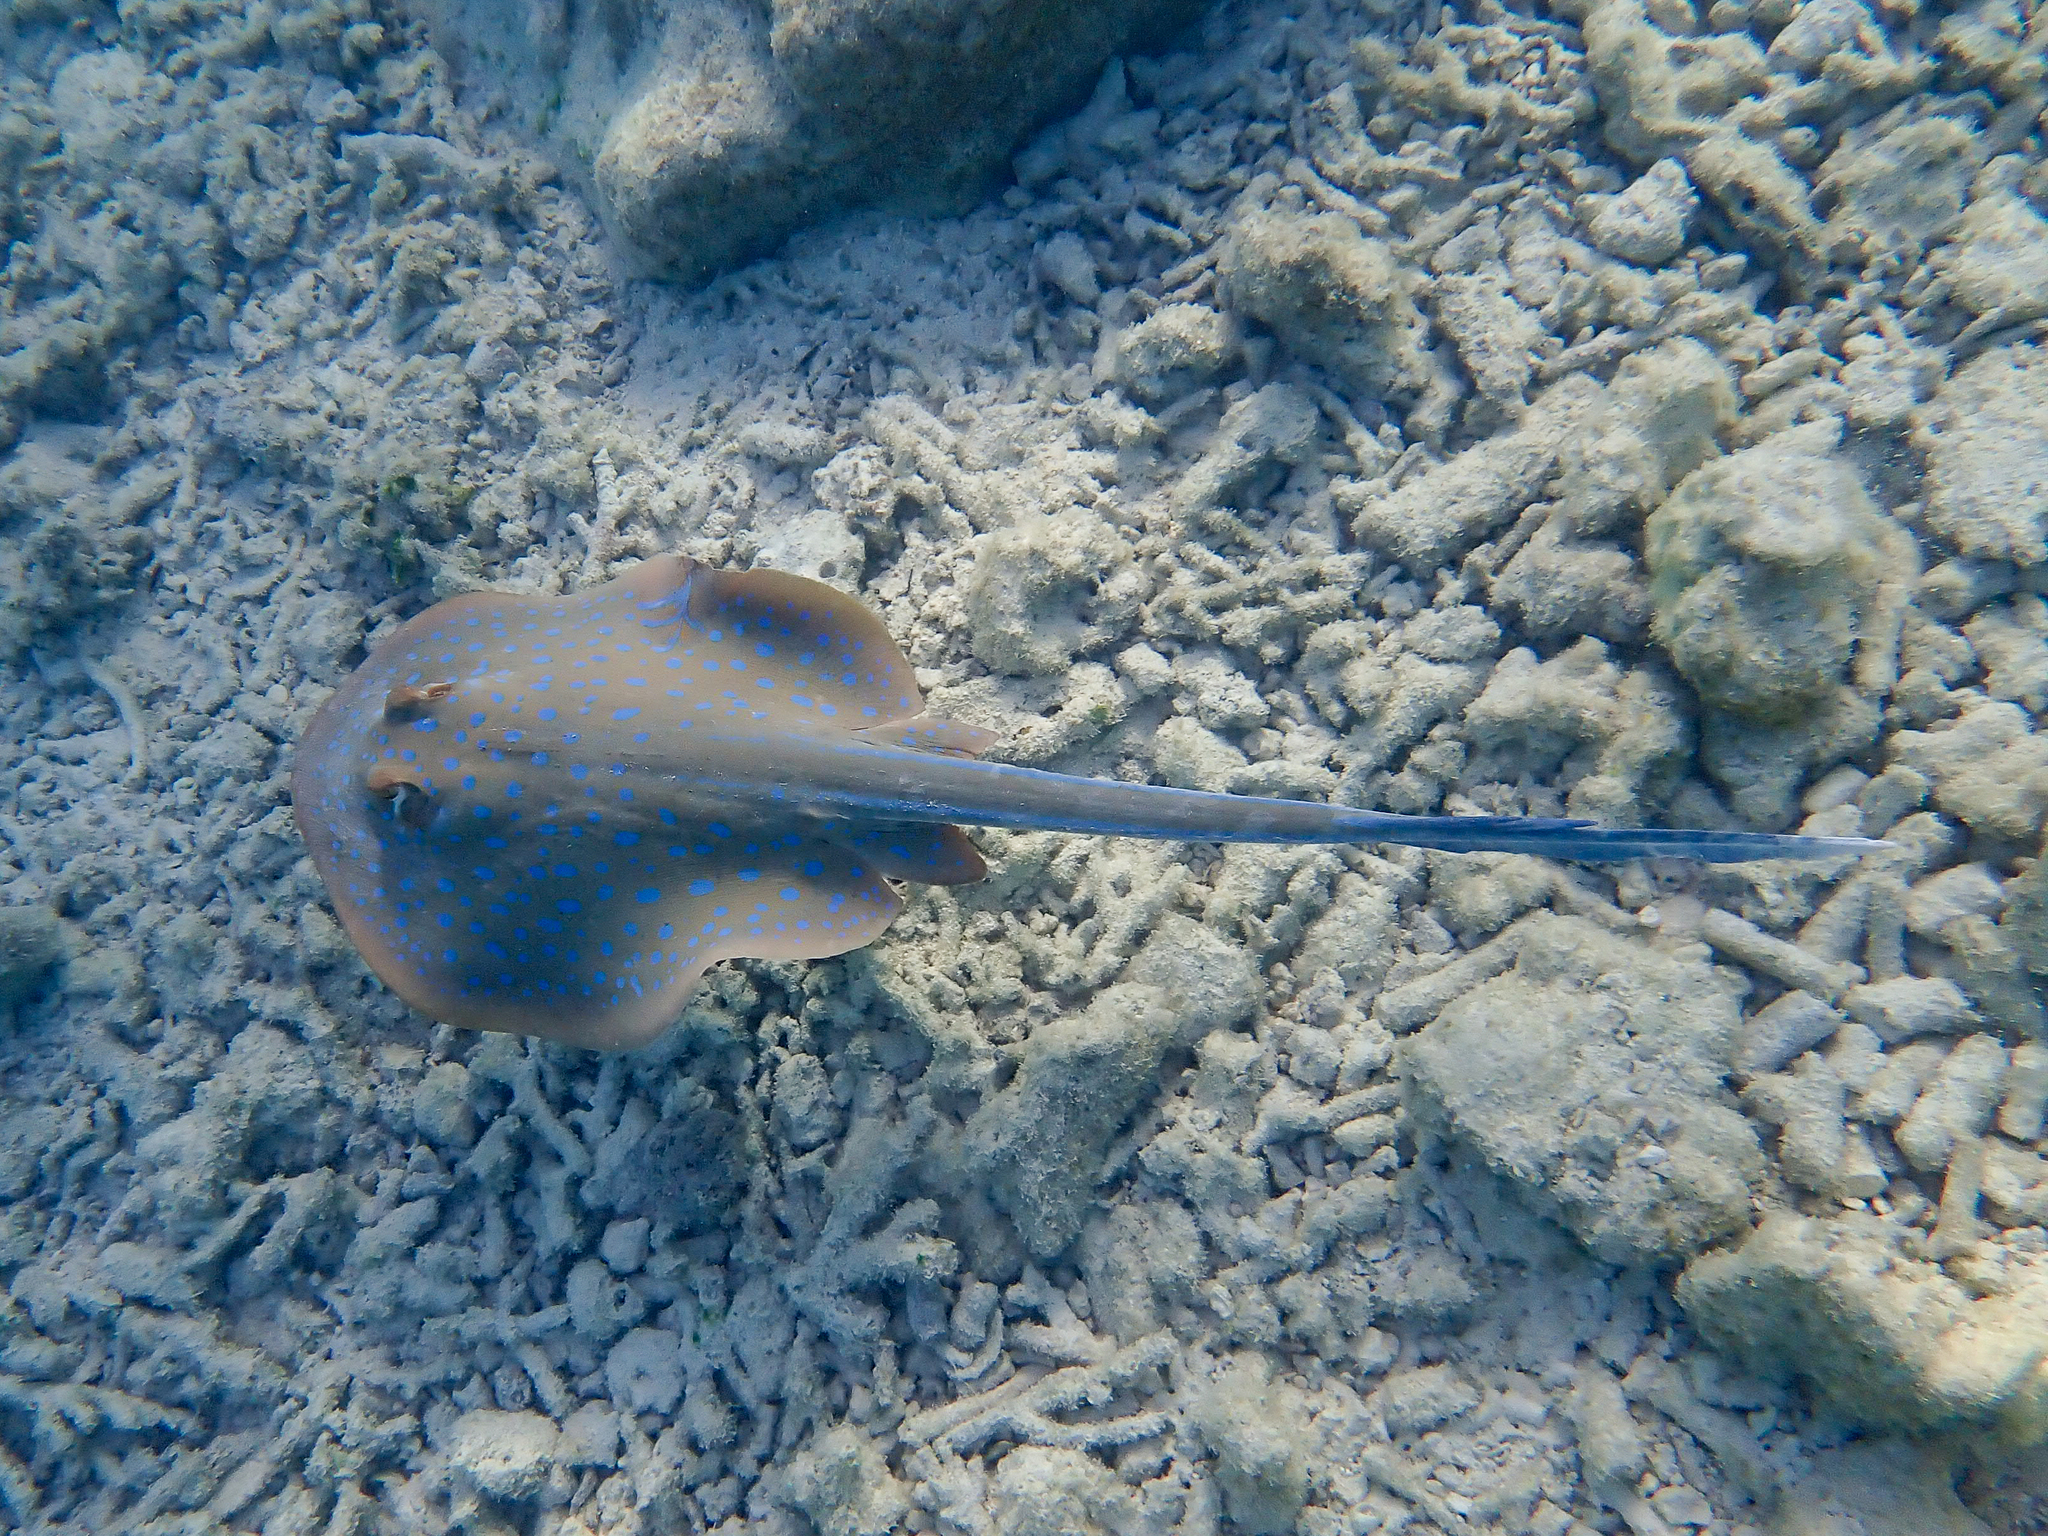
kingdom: Animalia
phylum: Chordata
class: Elasmobranchii
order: Myliobatiformes
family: Dasyatidae
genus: Taeniura
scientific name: Taeniura lymma
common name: Bluespotted ribbontail ray
